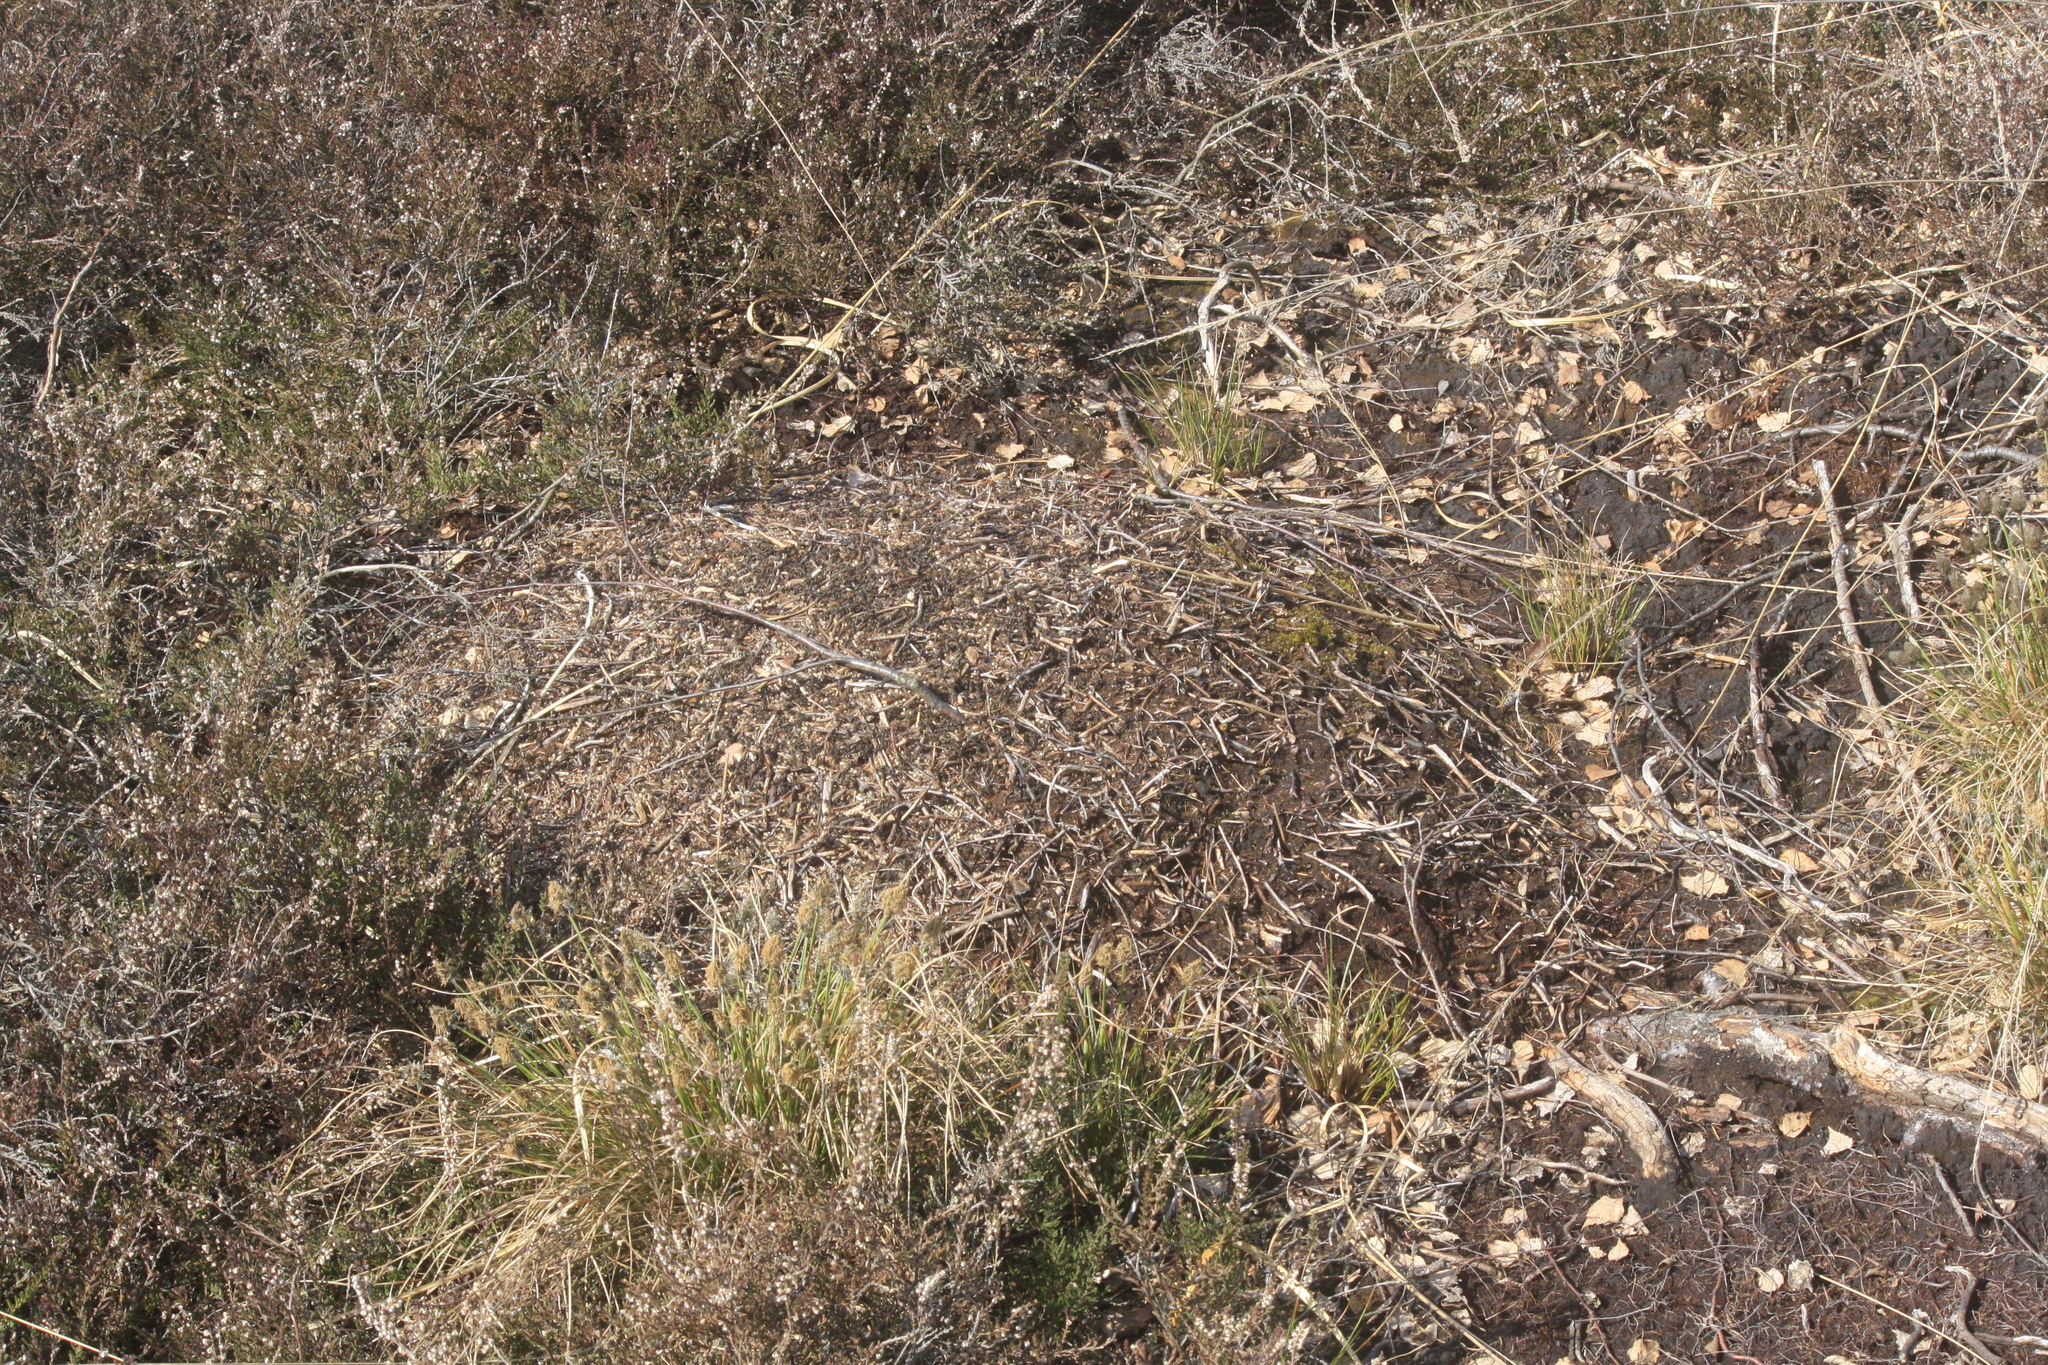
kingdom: Animalia
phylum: Arthropoda
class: Insecta
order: Hymenoptera
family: Formicidae
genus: Formica
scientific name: Formica pratensis
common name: European red wood ant
